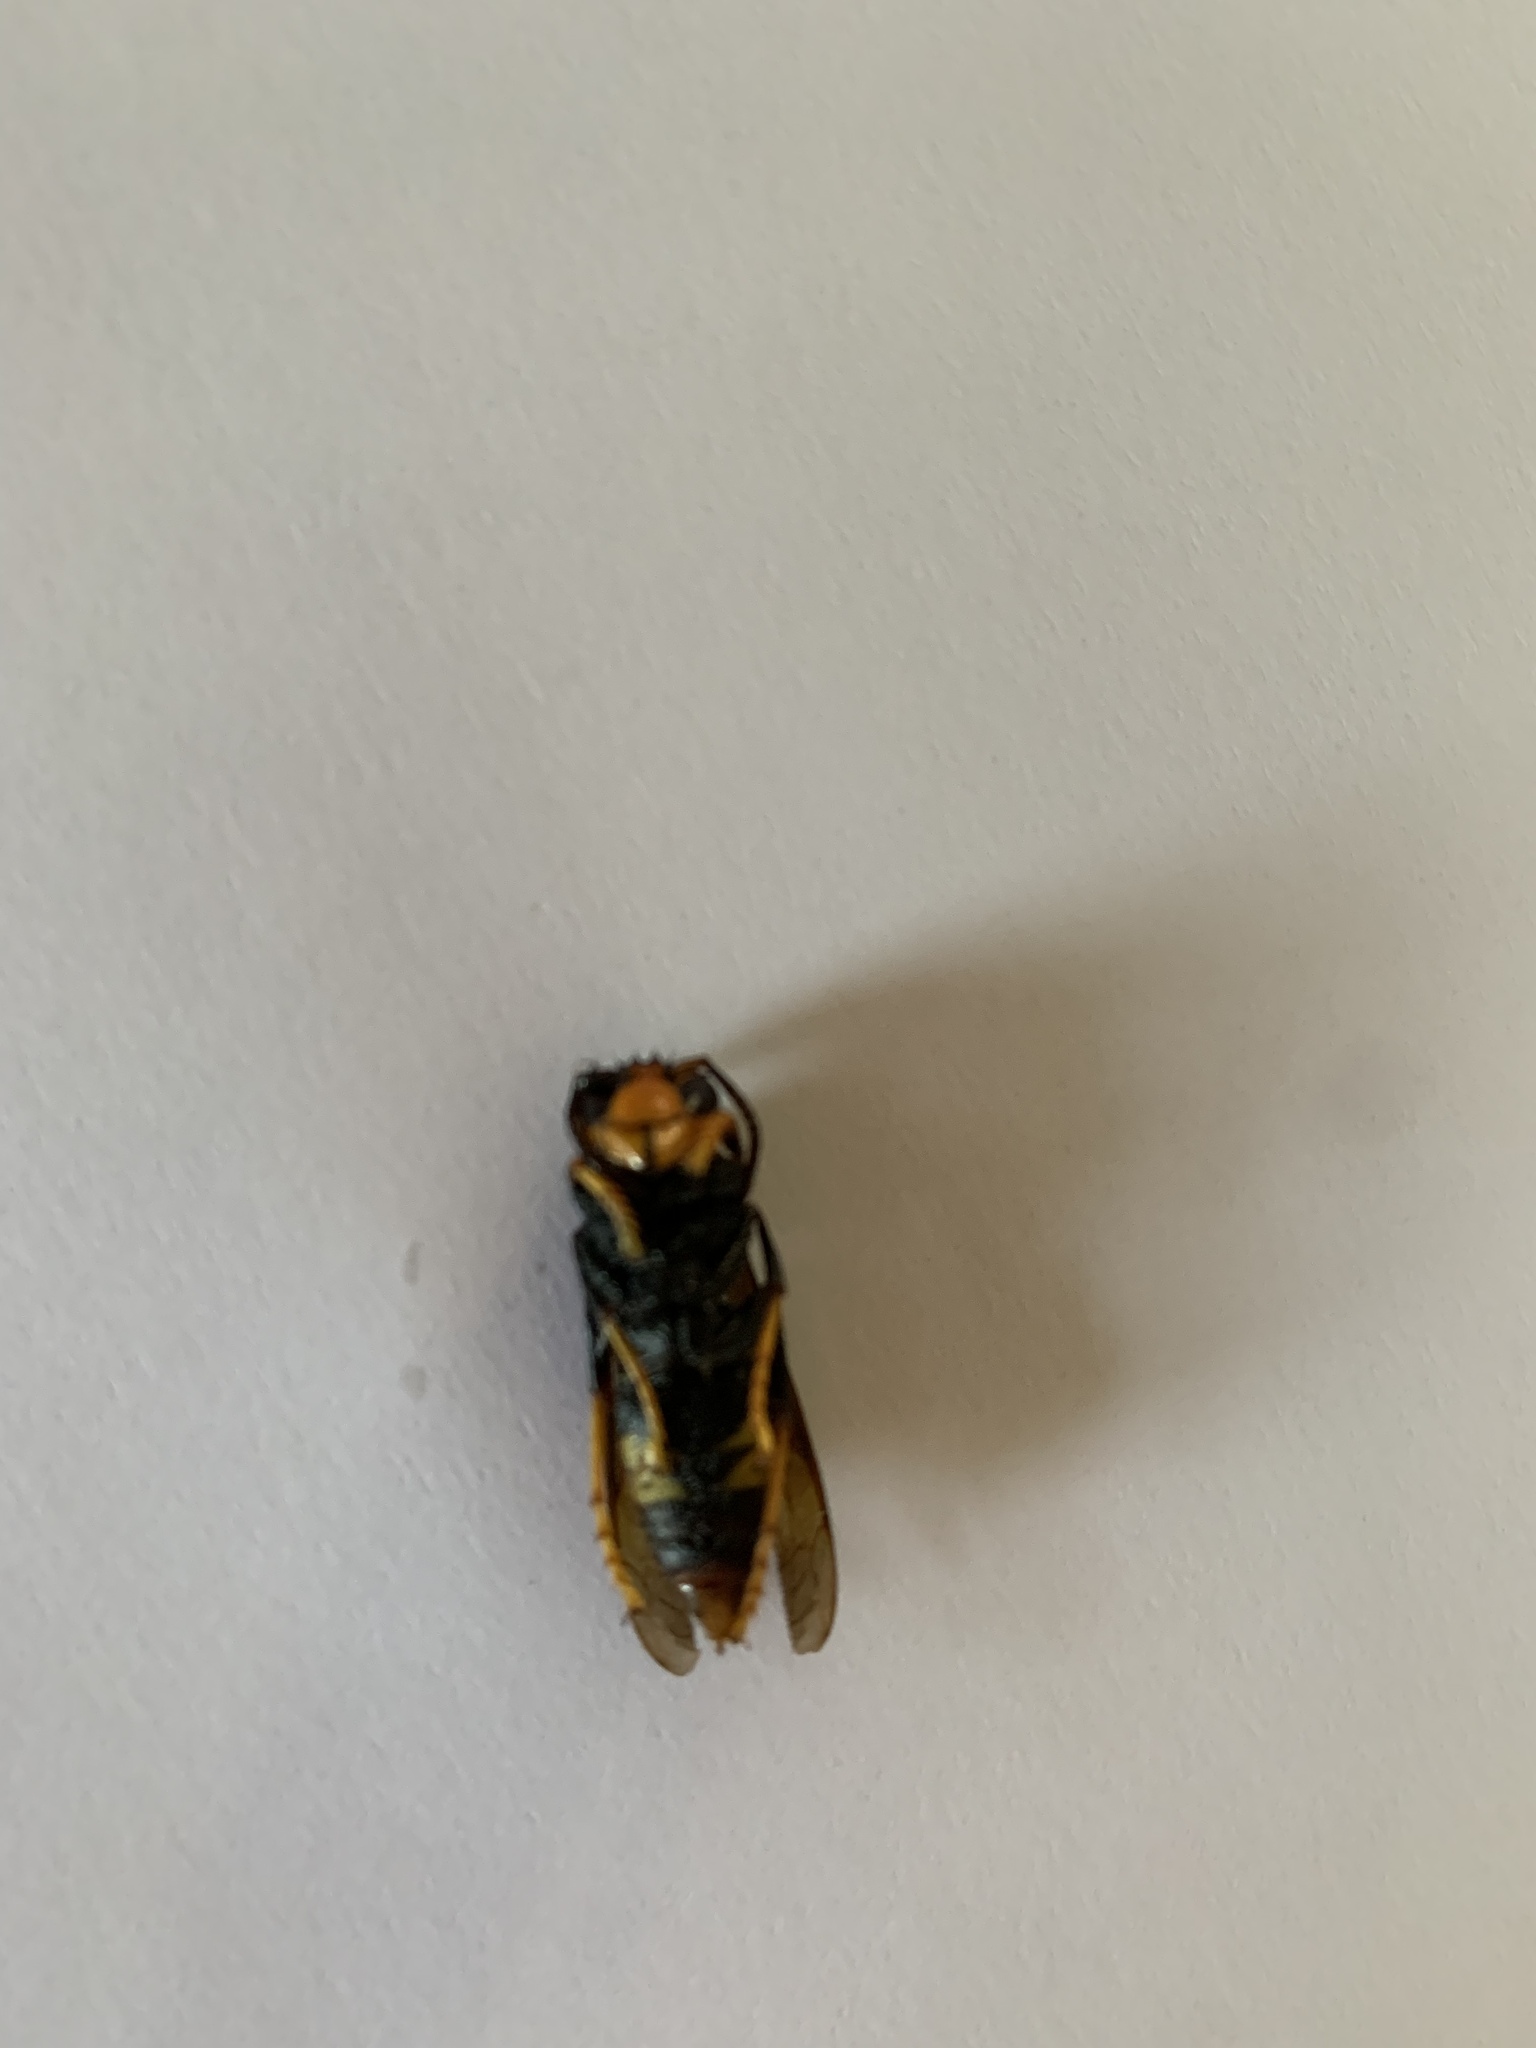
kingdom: Animalia
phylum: Arthropoda
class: Insecta
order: Hymenoptera
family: Vespidae
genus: Vespa
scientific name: Vespa velutina
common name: Asian hornet
